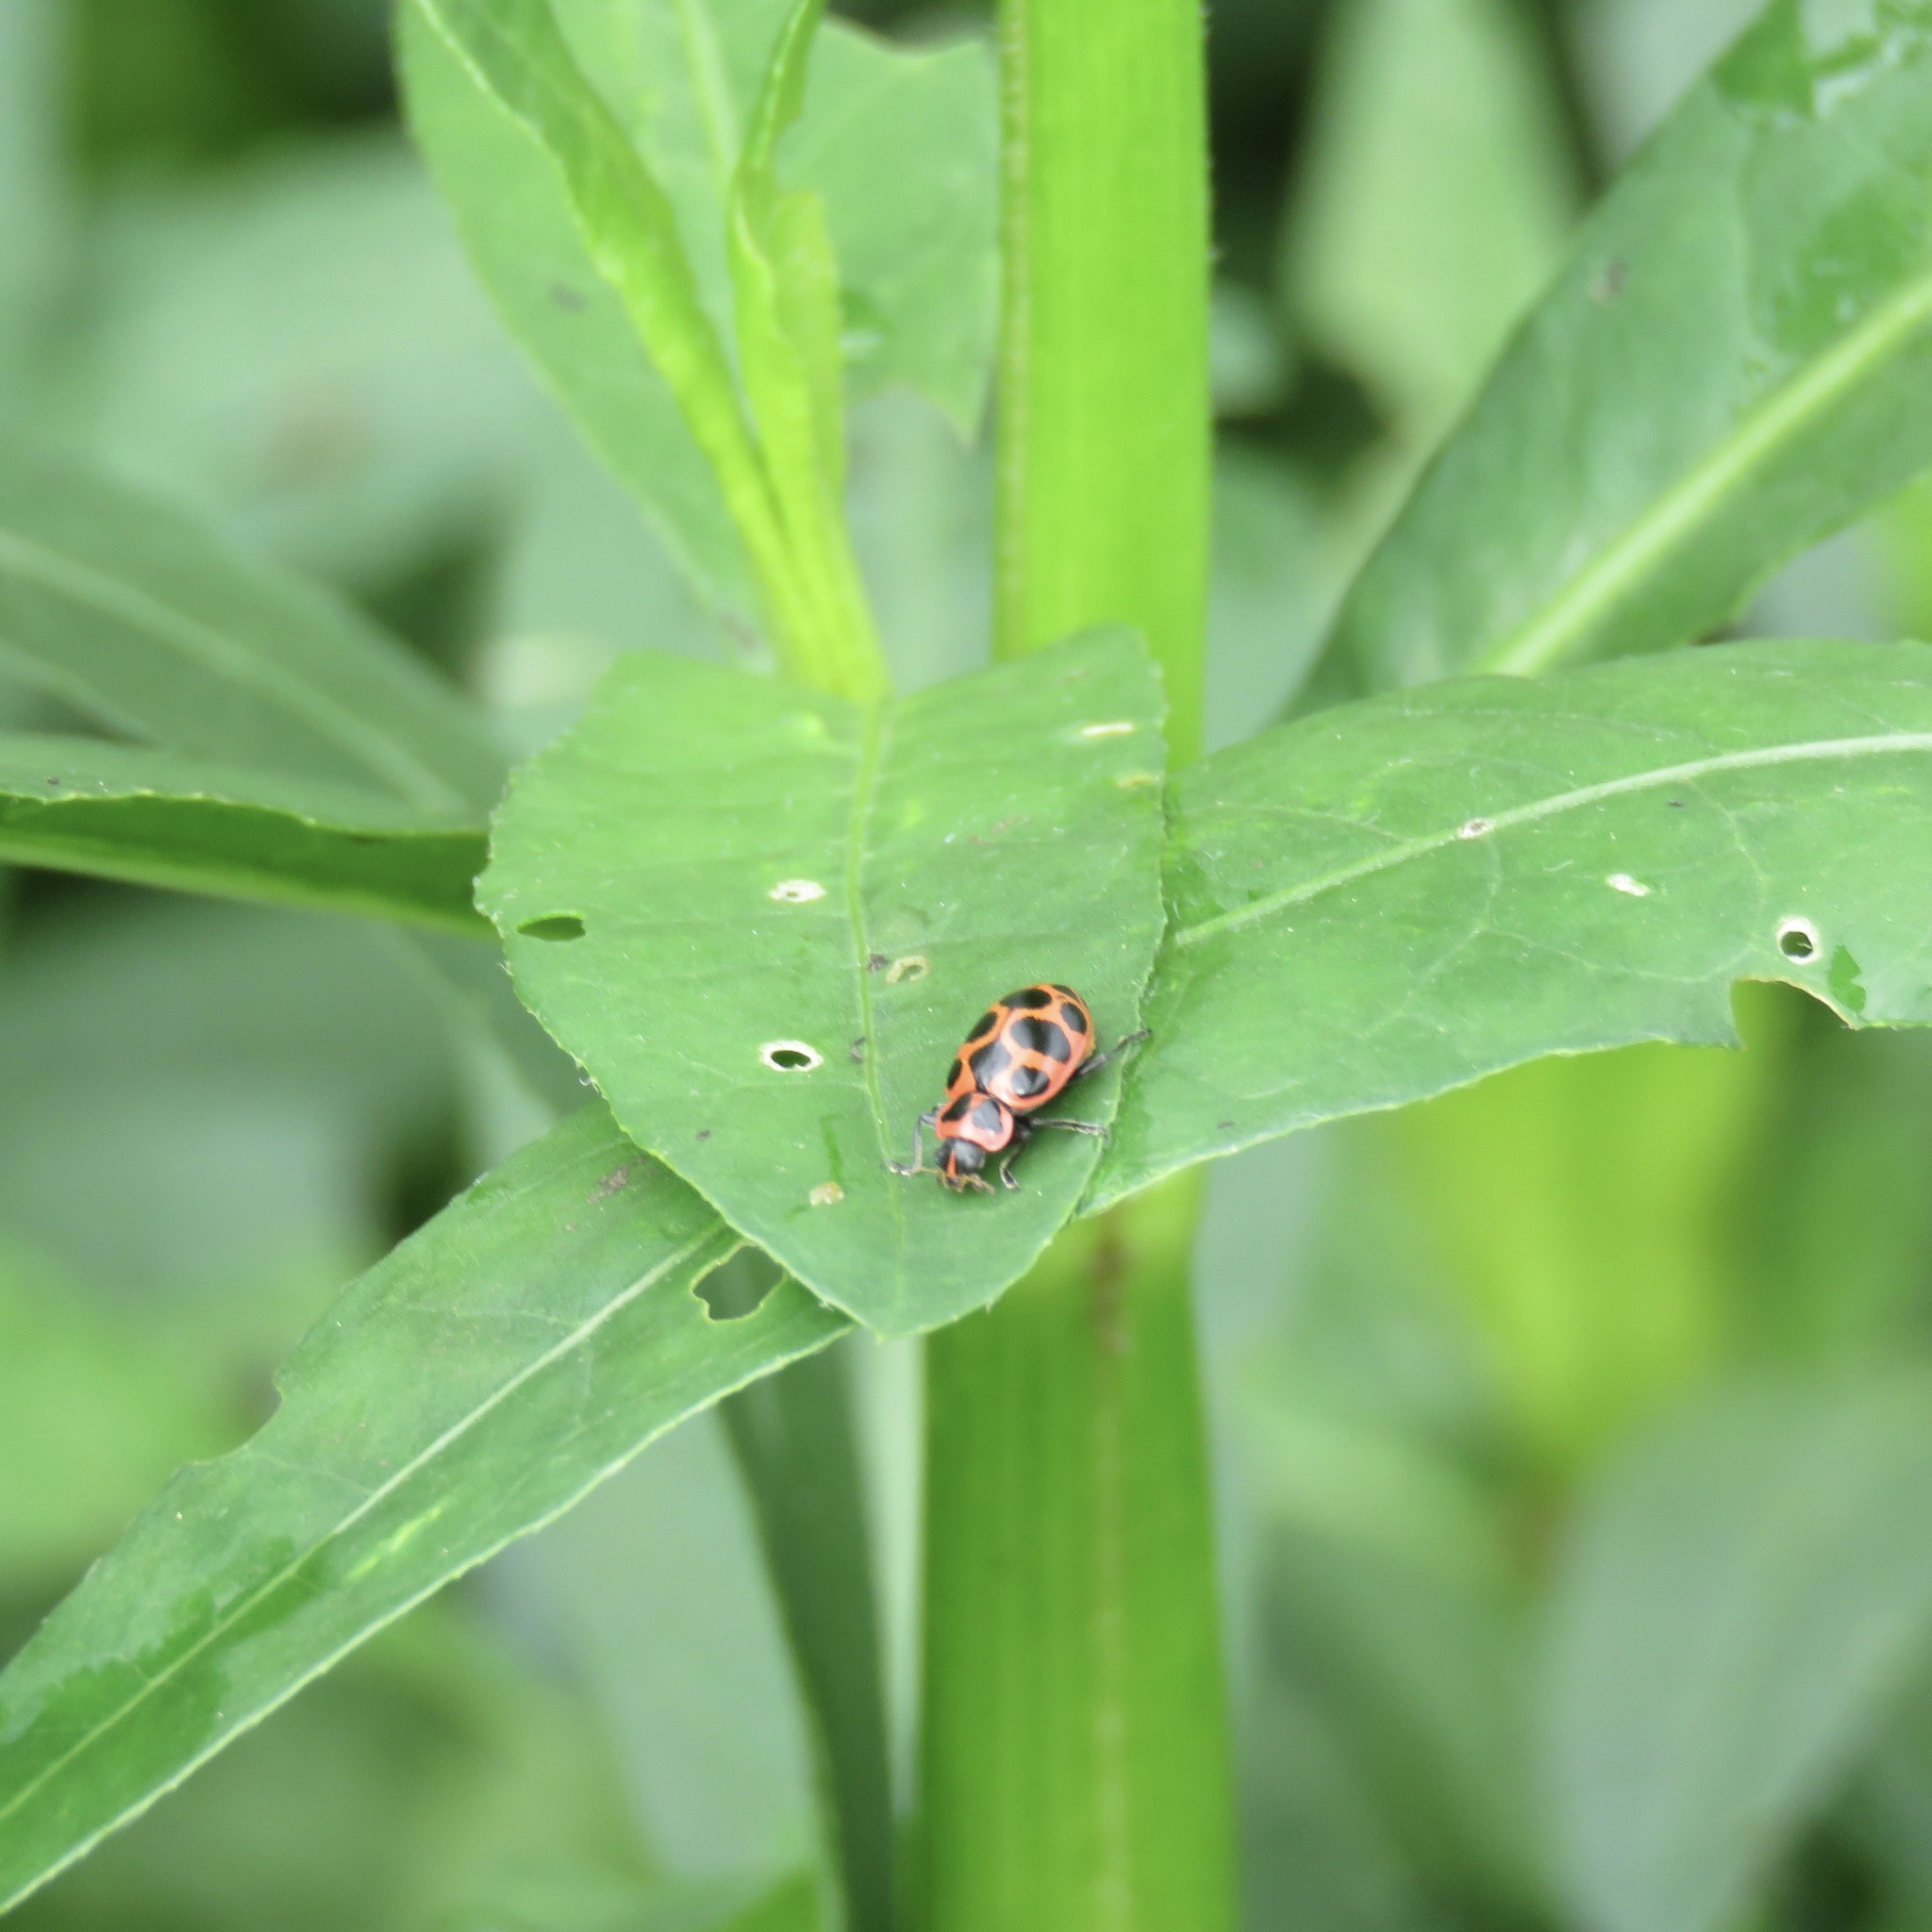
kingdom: Animalia
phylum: Arthropoda
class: Insecta
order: Coleoptera
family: Coccinellidae
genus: Coleomegilla
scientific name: Coleomegilla maculata
